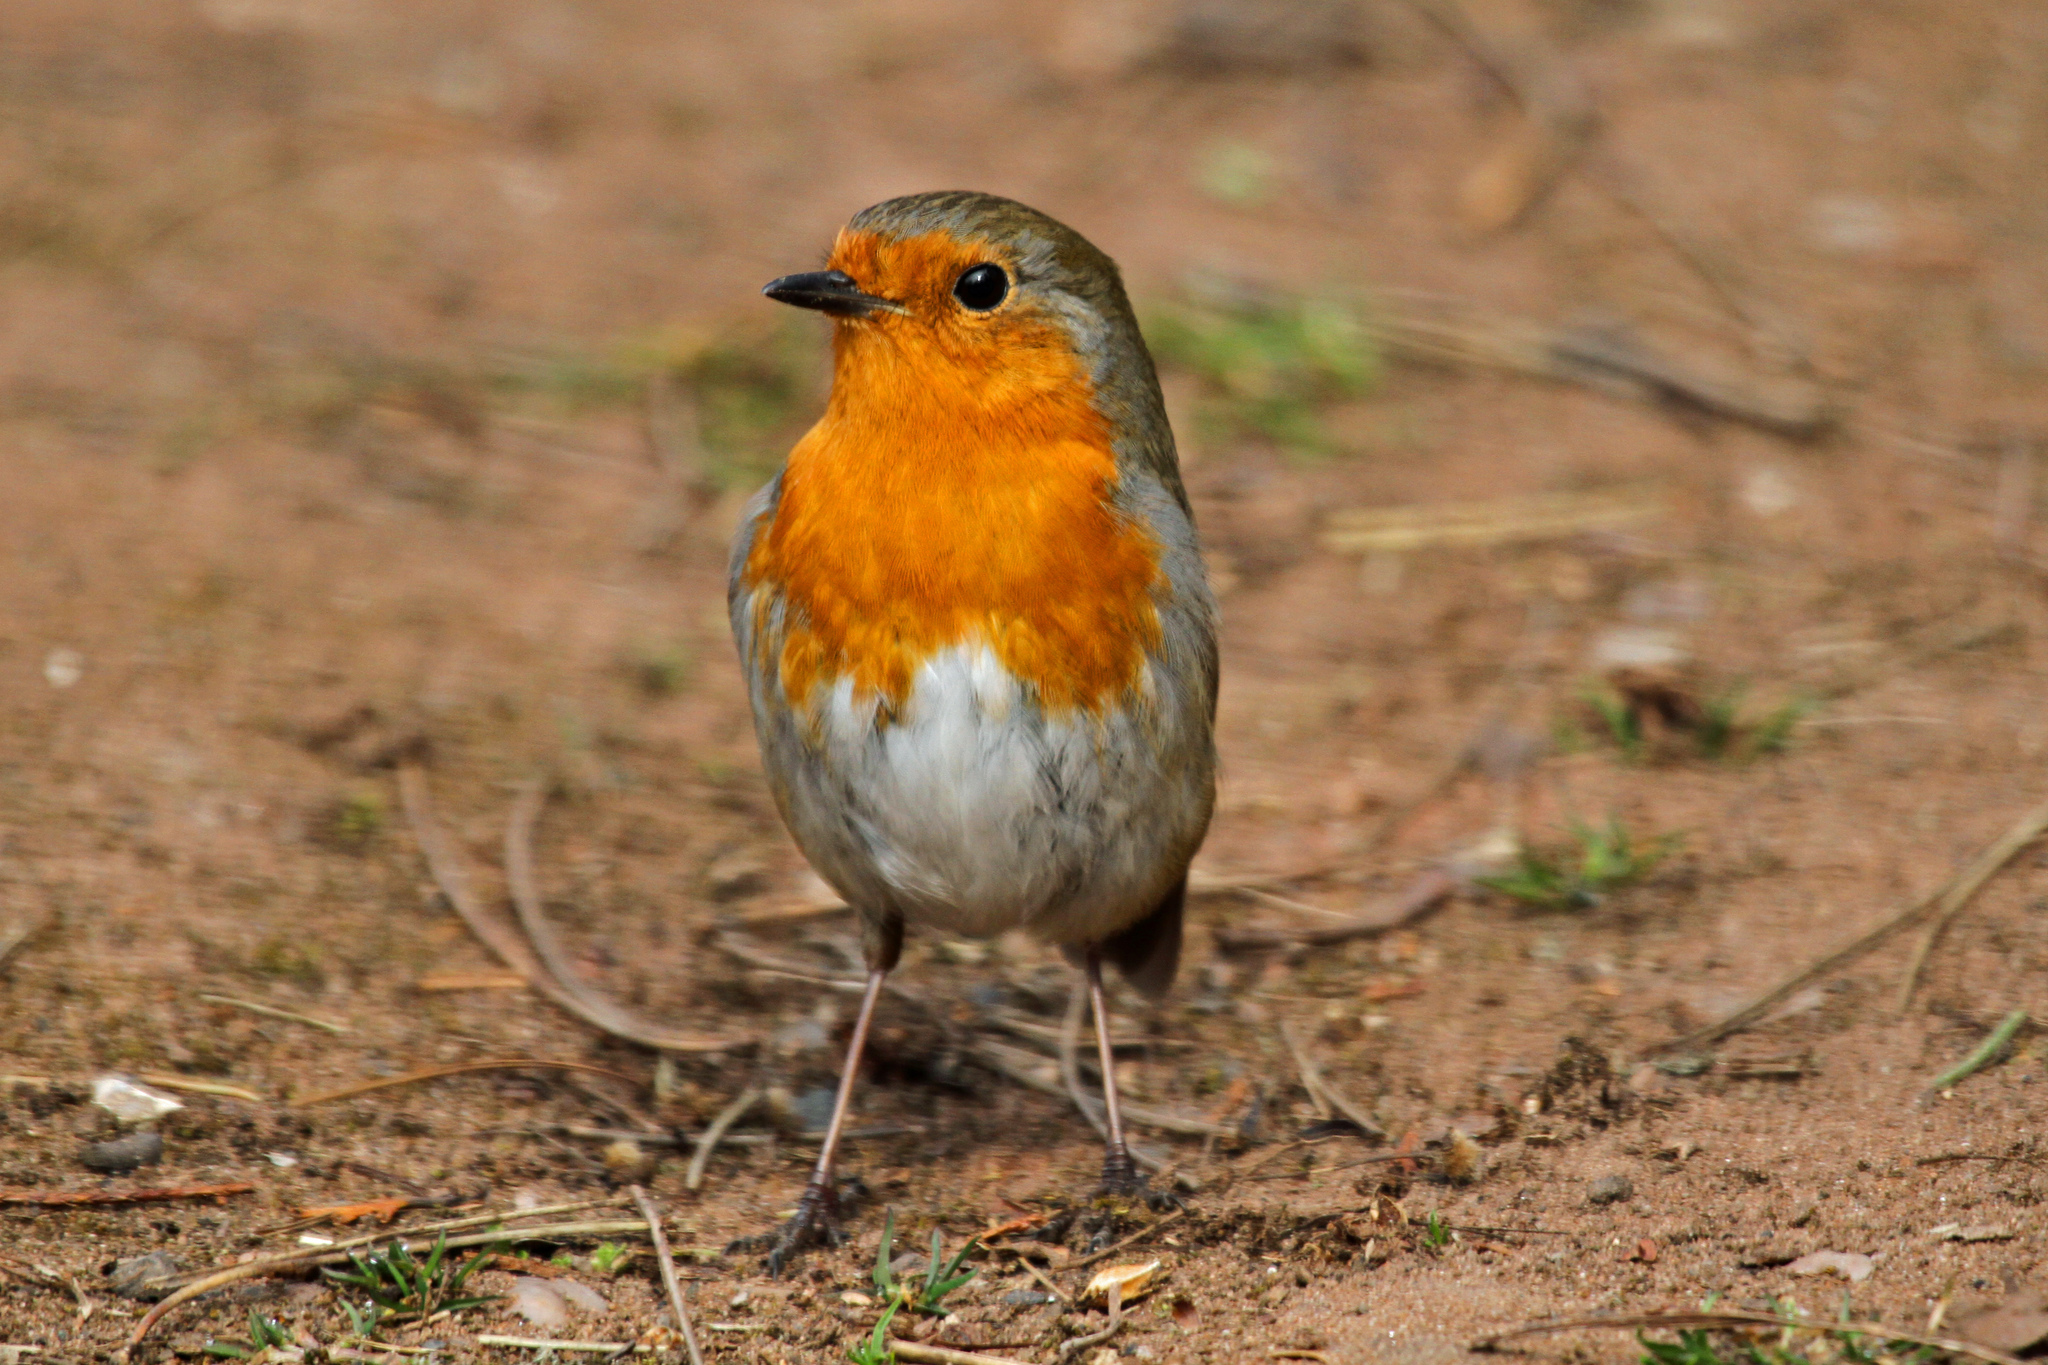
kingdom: Animalia
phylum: Chordata
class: Aves
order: Passeriformes
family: Muscicapidae
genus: Erithacus
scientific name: Erithacus rubecula
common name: European robin
